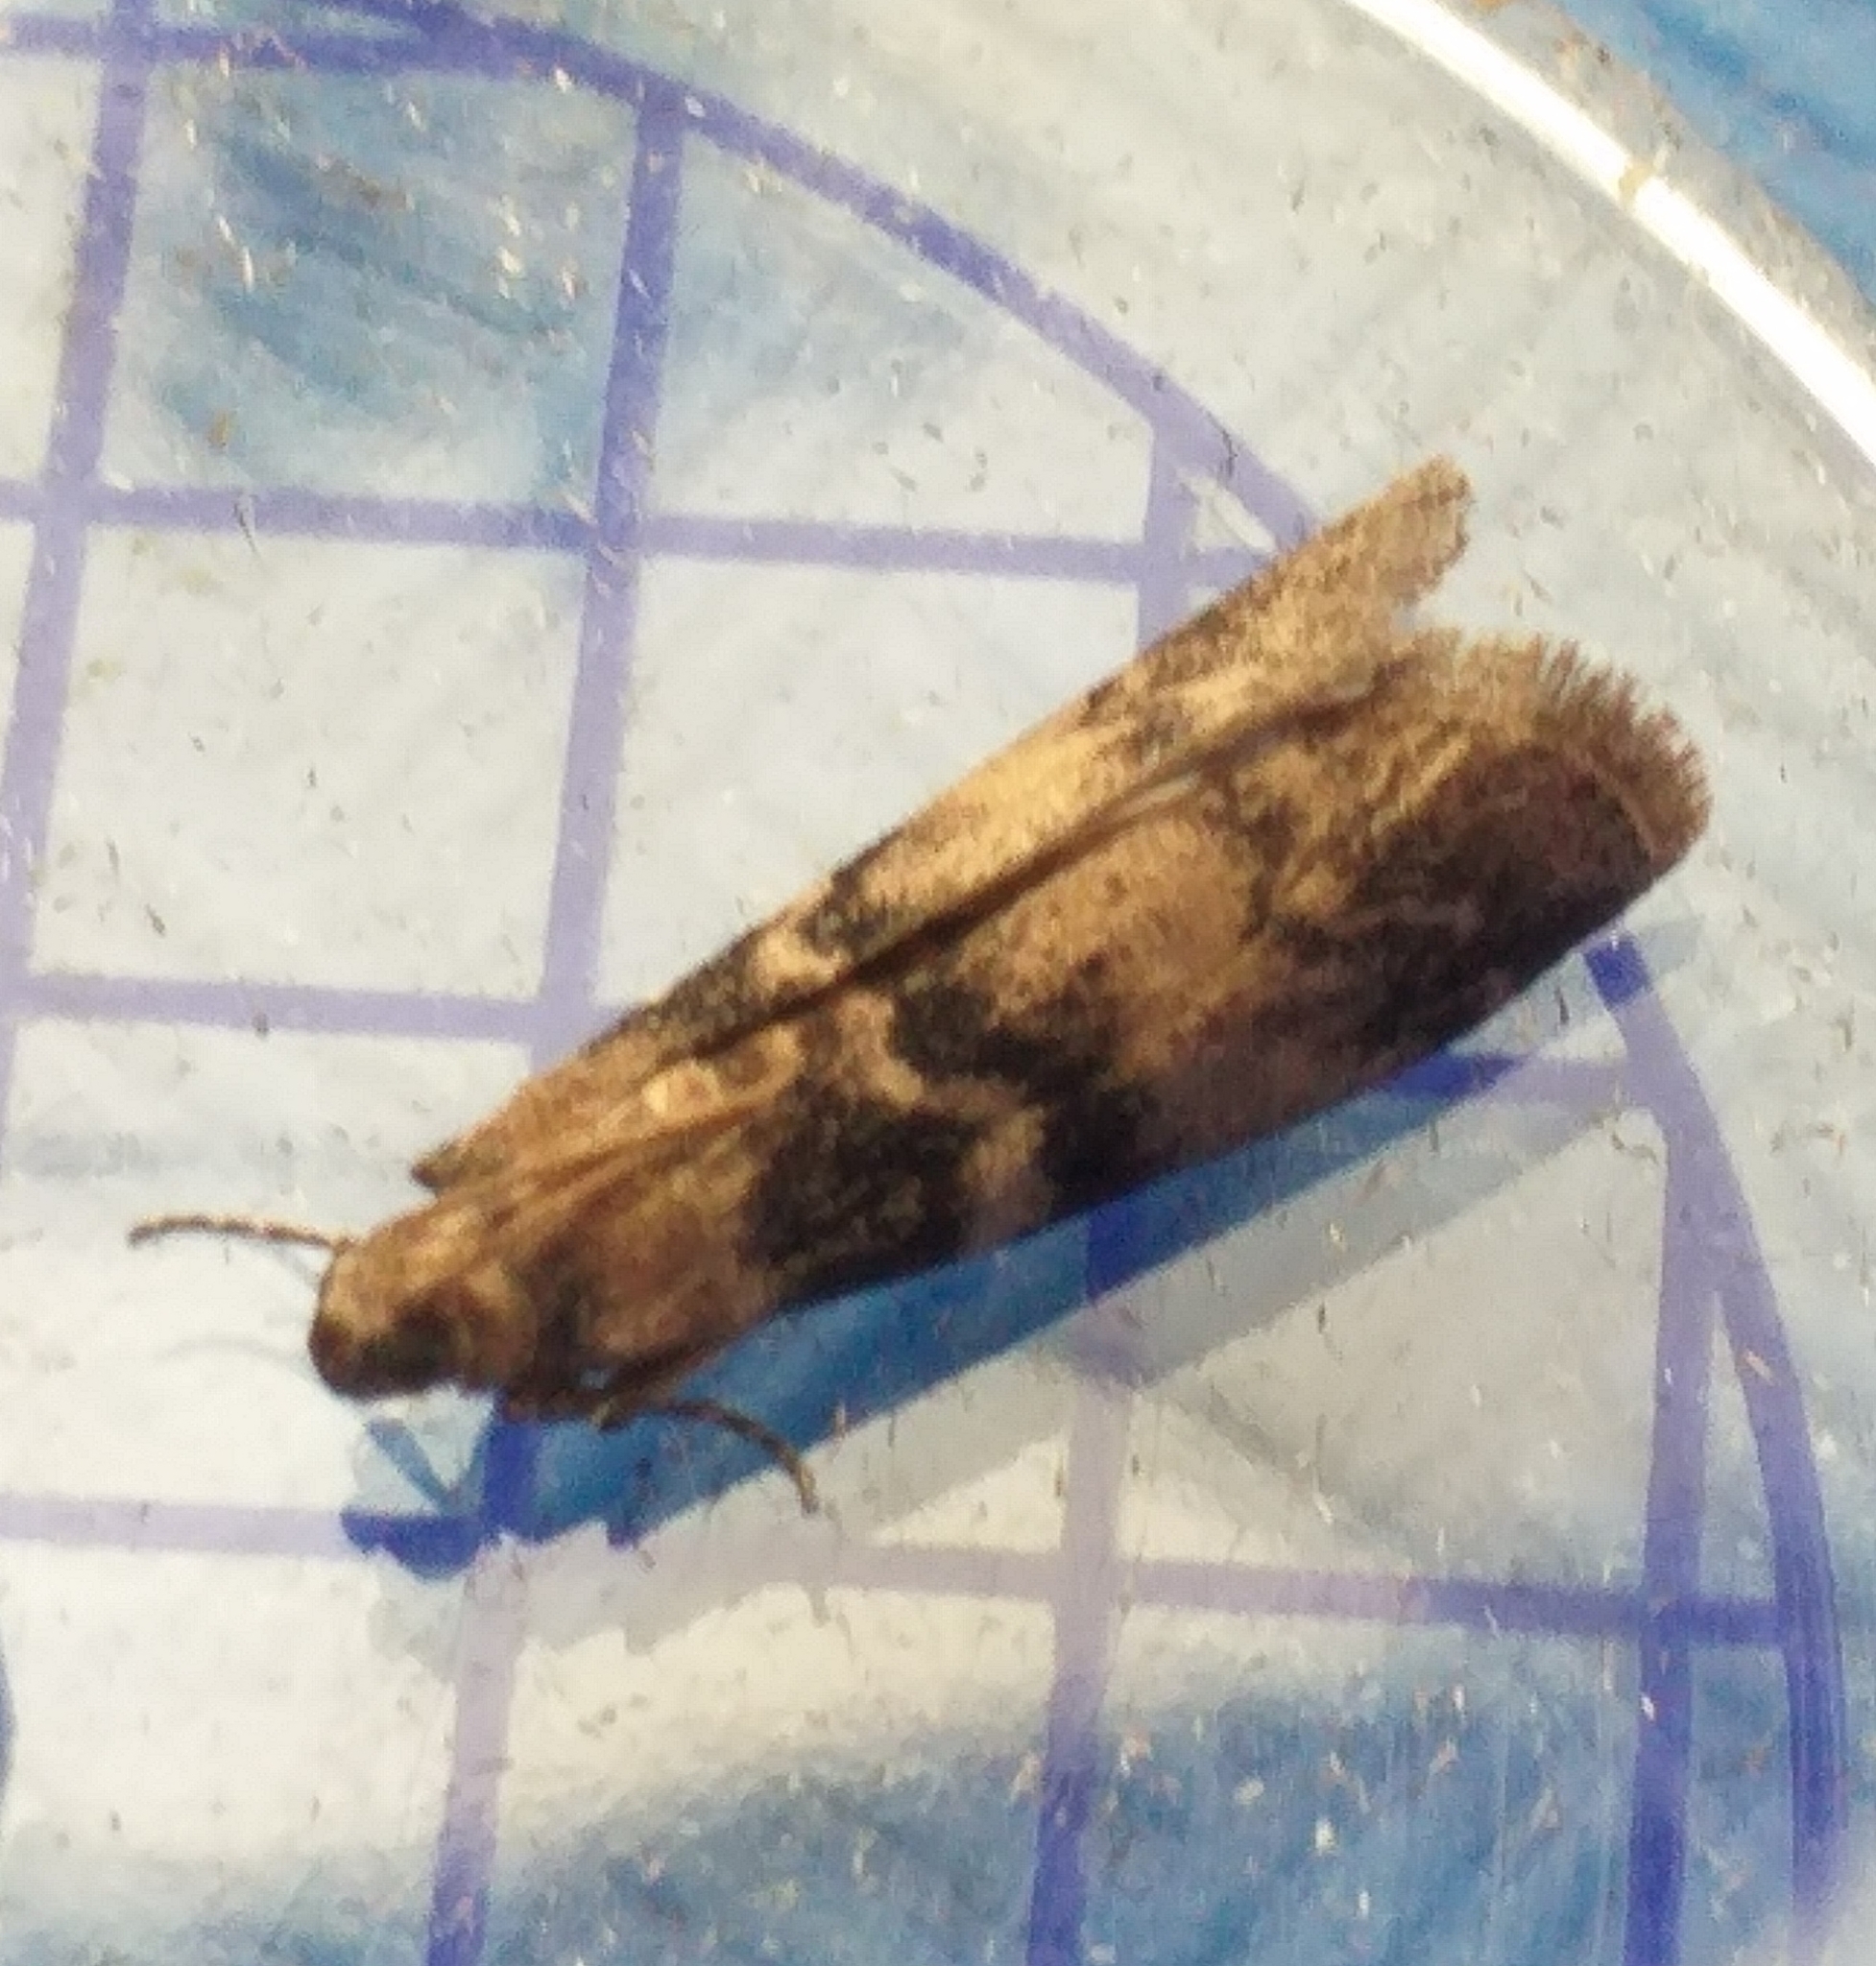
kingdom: Animalia
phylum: Arthropoda
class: Insecta
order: Lepidoptera
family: Pyralidae
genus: Euzophera
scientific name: Euzophera pinguis
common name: Ash-bark knot-horn
